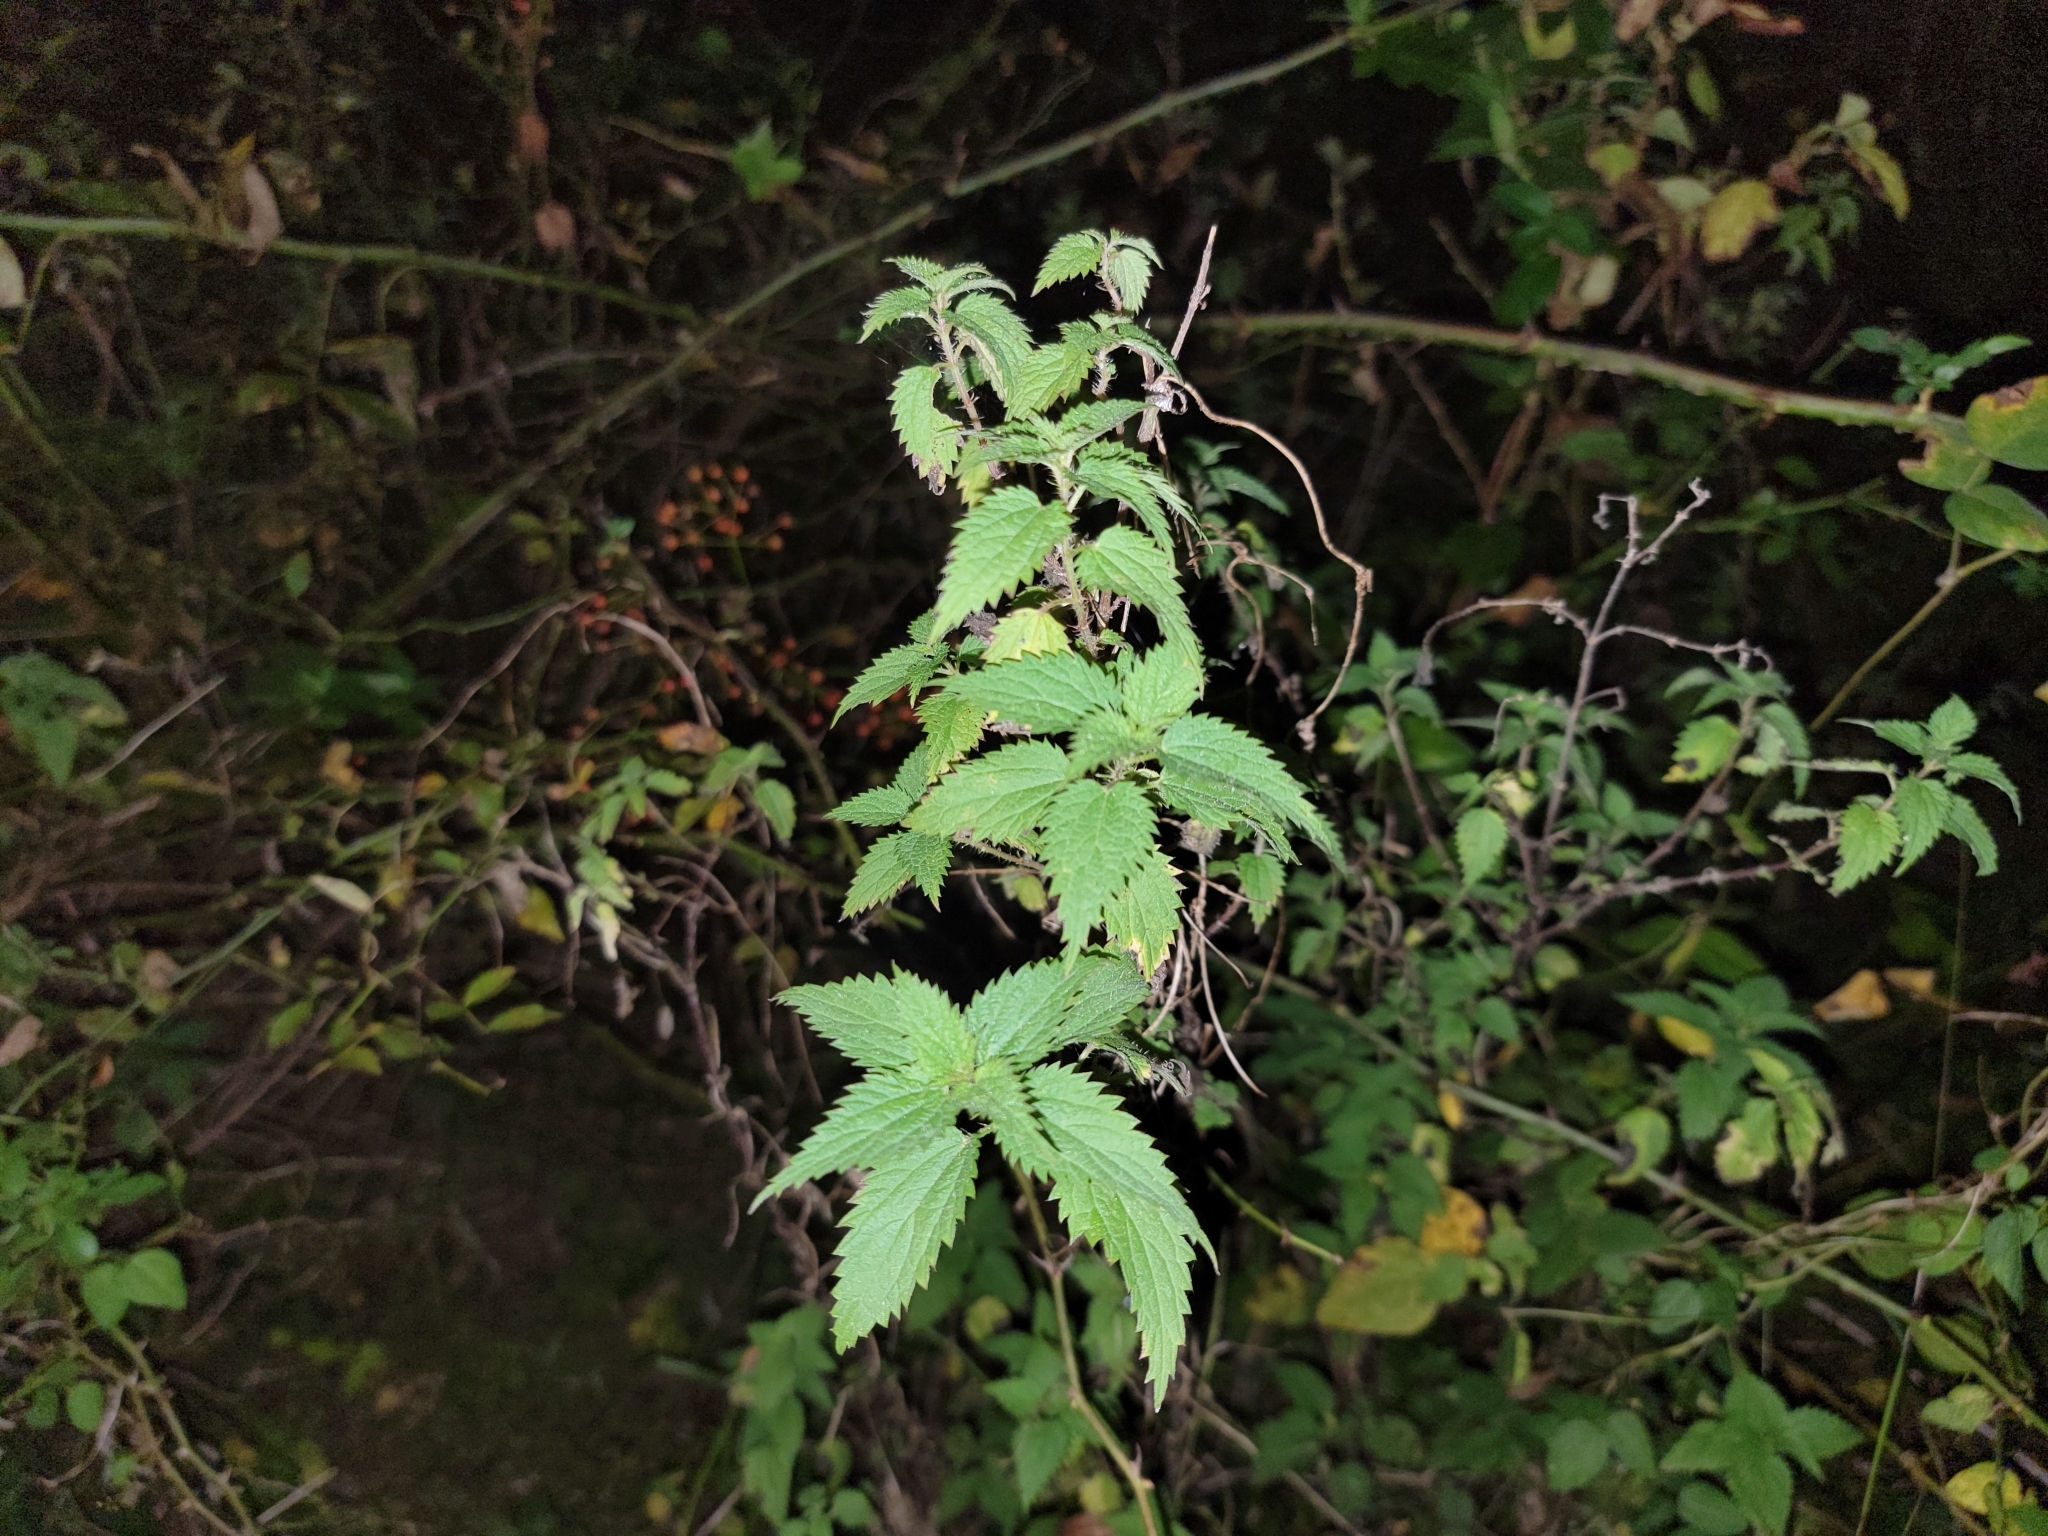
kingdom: Plantae
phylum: Tracheophyta
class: Magnoliopsida
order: Rosales
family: Urticaceae
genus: Urtica
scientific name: Urtica dioica
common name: Common nettle
